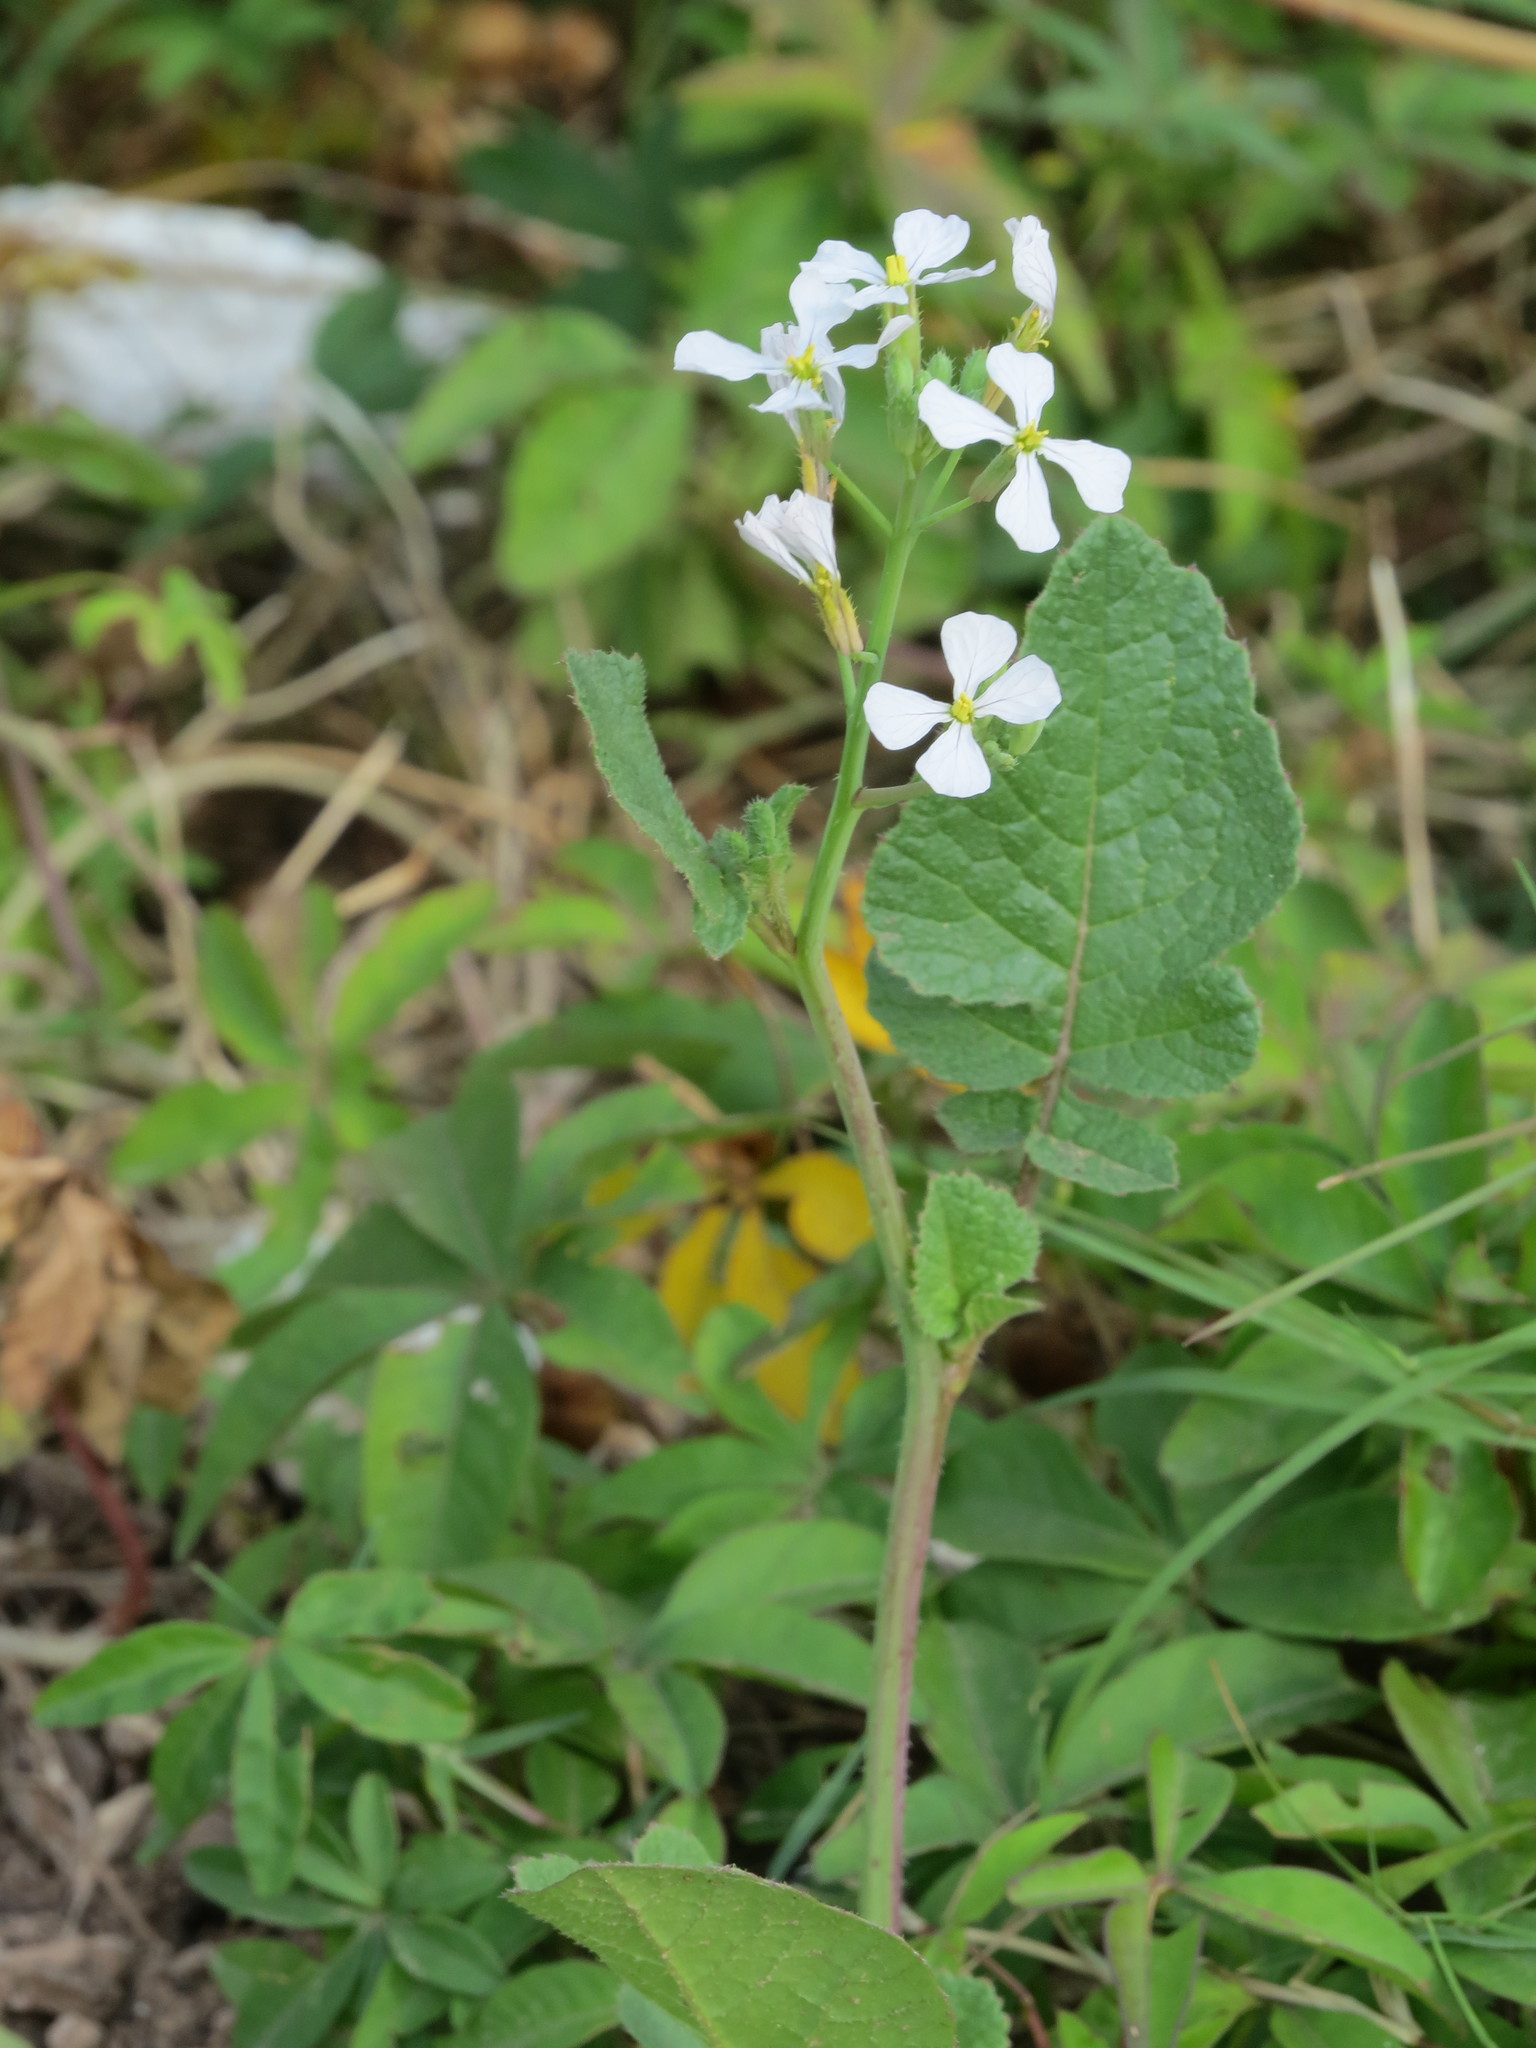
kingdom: Plantae
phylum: Tracheophyta
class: Magnoliopsida
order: Brassicales
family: Brassicaceae
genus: Raphanus
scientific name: Raphanus sativus
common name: Cultivated radish
